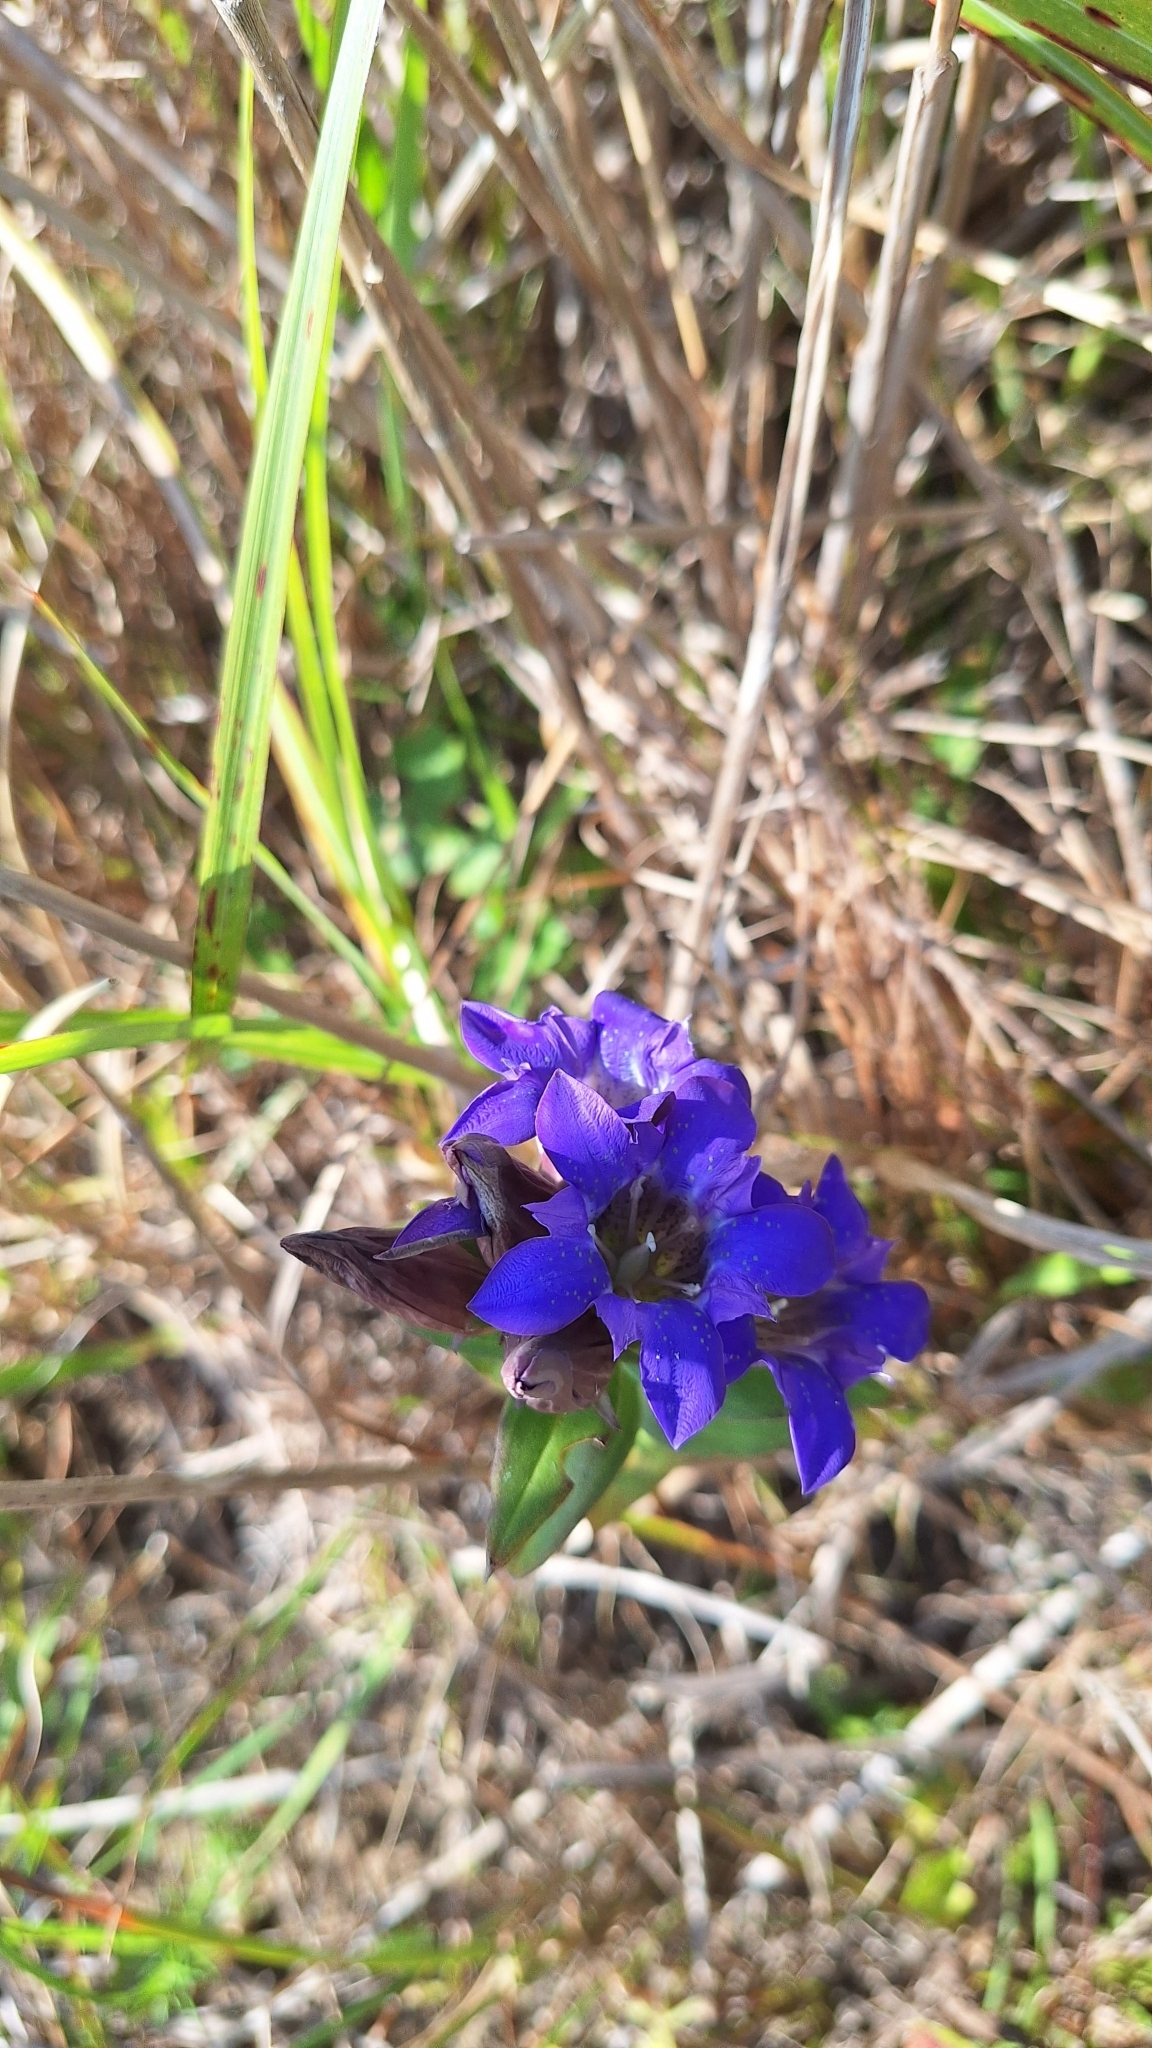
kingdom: Plantae
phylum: Tracheophyta
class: Magnoliopsida
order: Gentianales
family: Gentianaceae
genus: Gentiana
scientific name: Gentiana scabra
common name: Scabrous gentian
